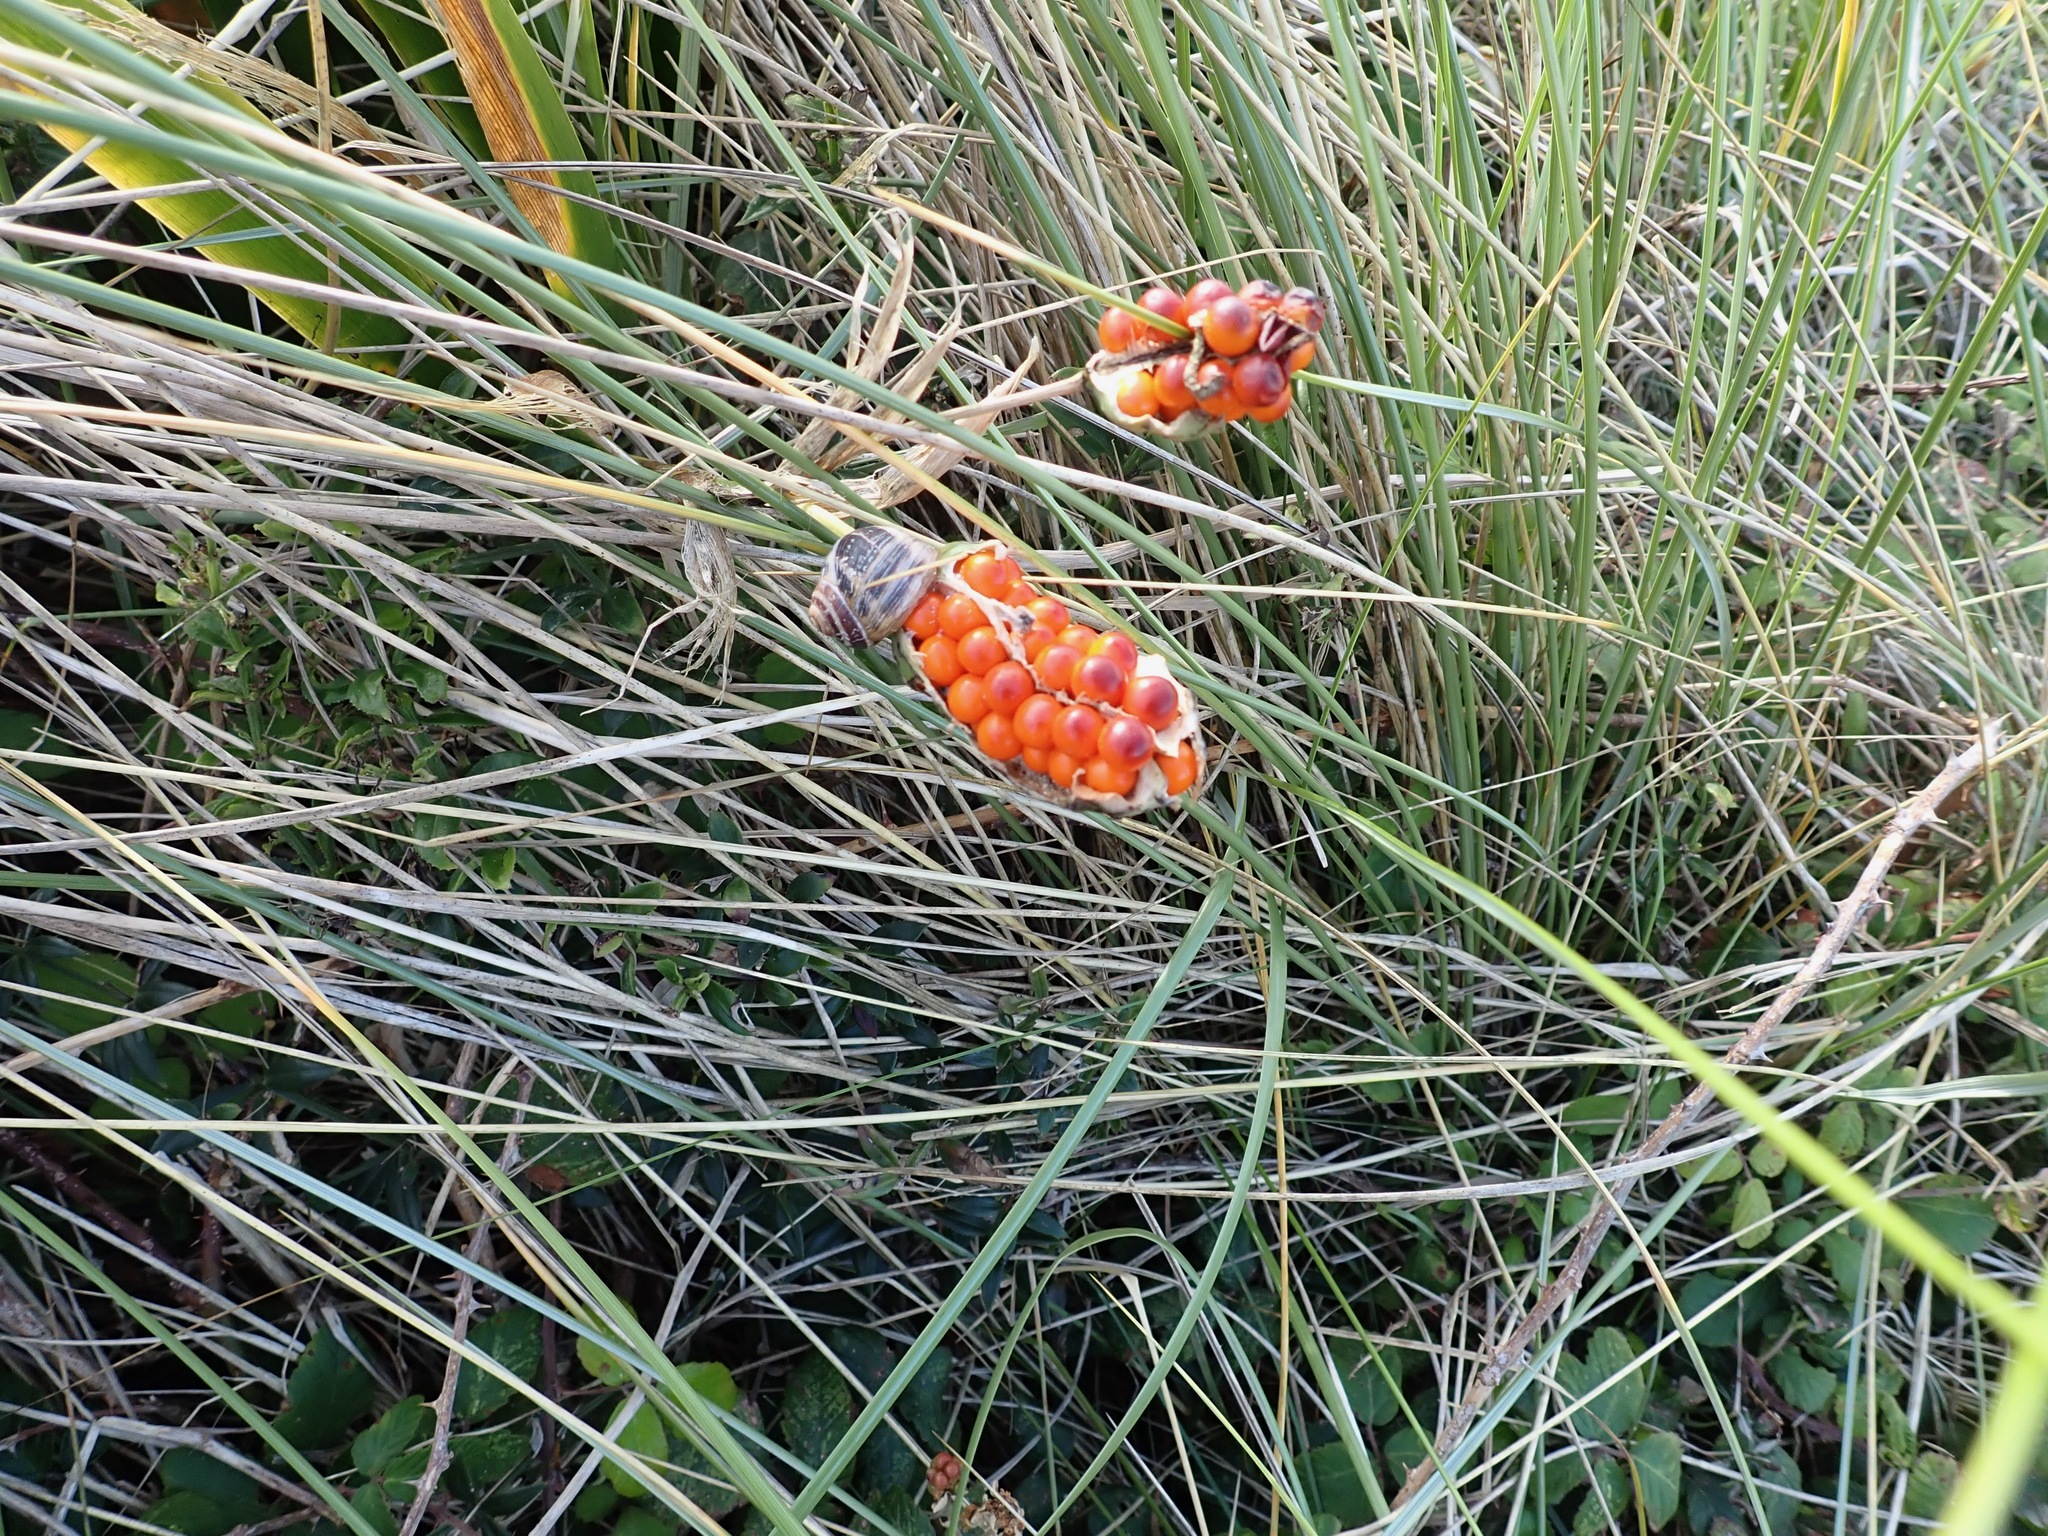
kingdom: Plantae
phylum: Tracheophyta
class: Liliopsida
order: Asparagales
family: Iridaceae
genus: Iris
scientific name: Iris foetidissima
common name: Stinking iris
